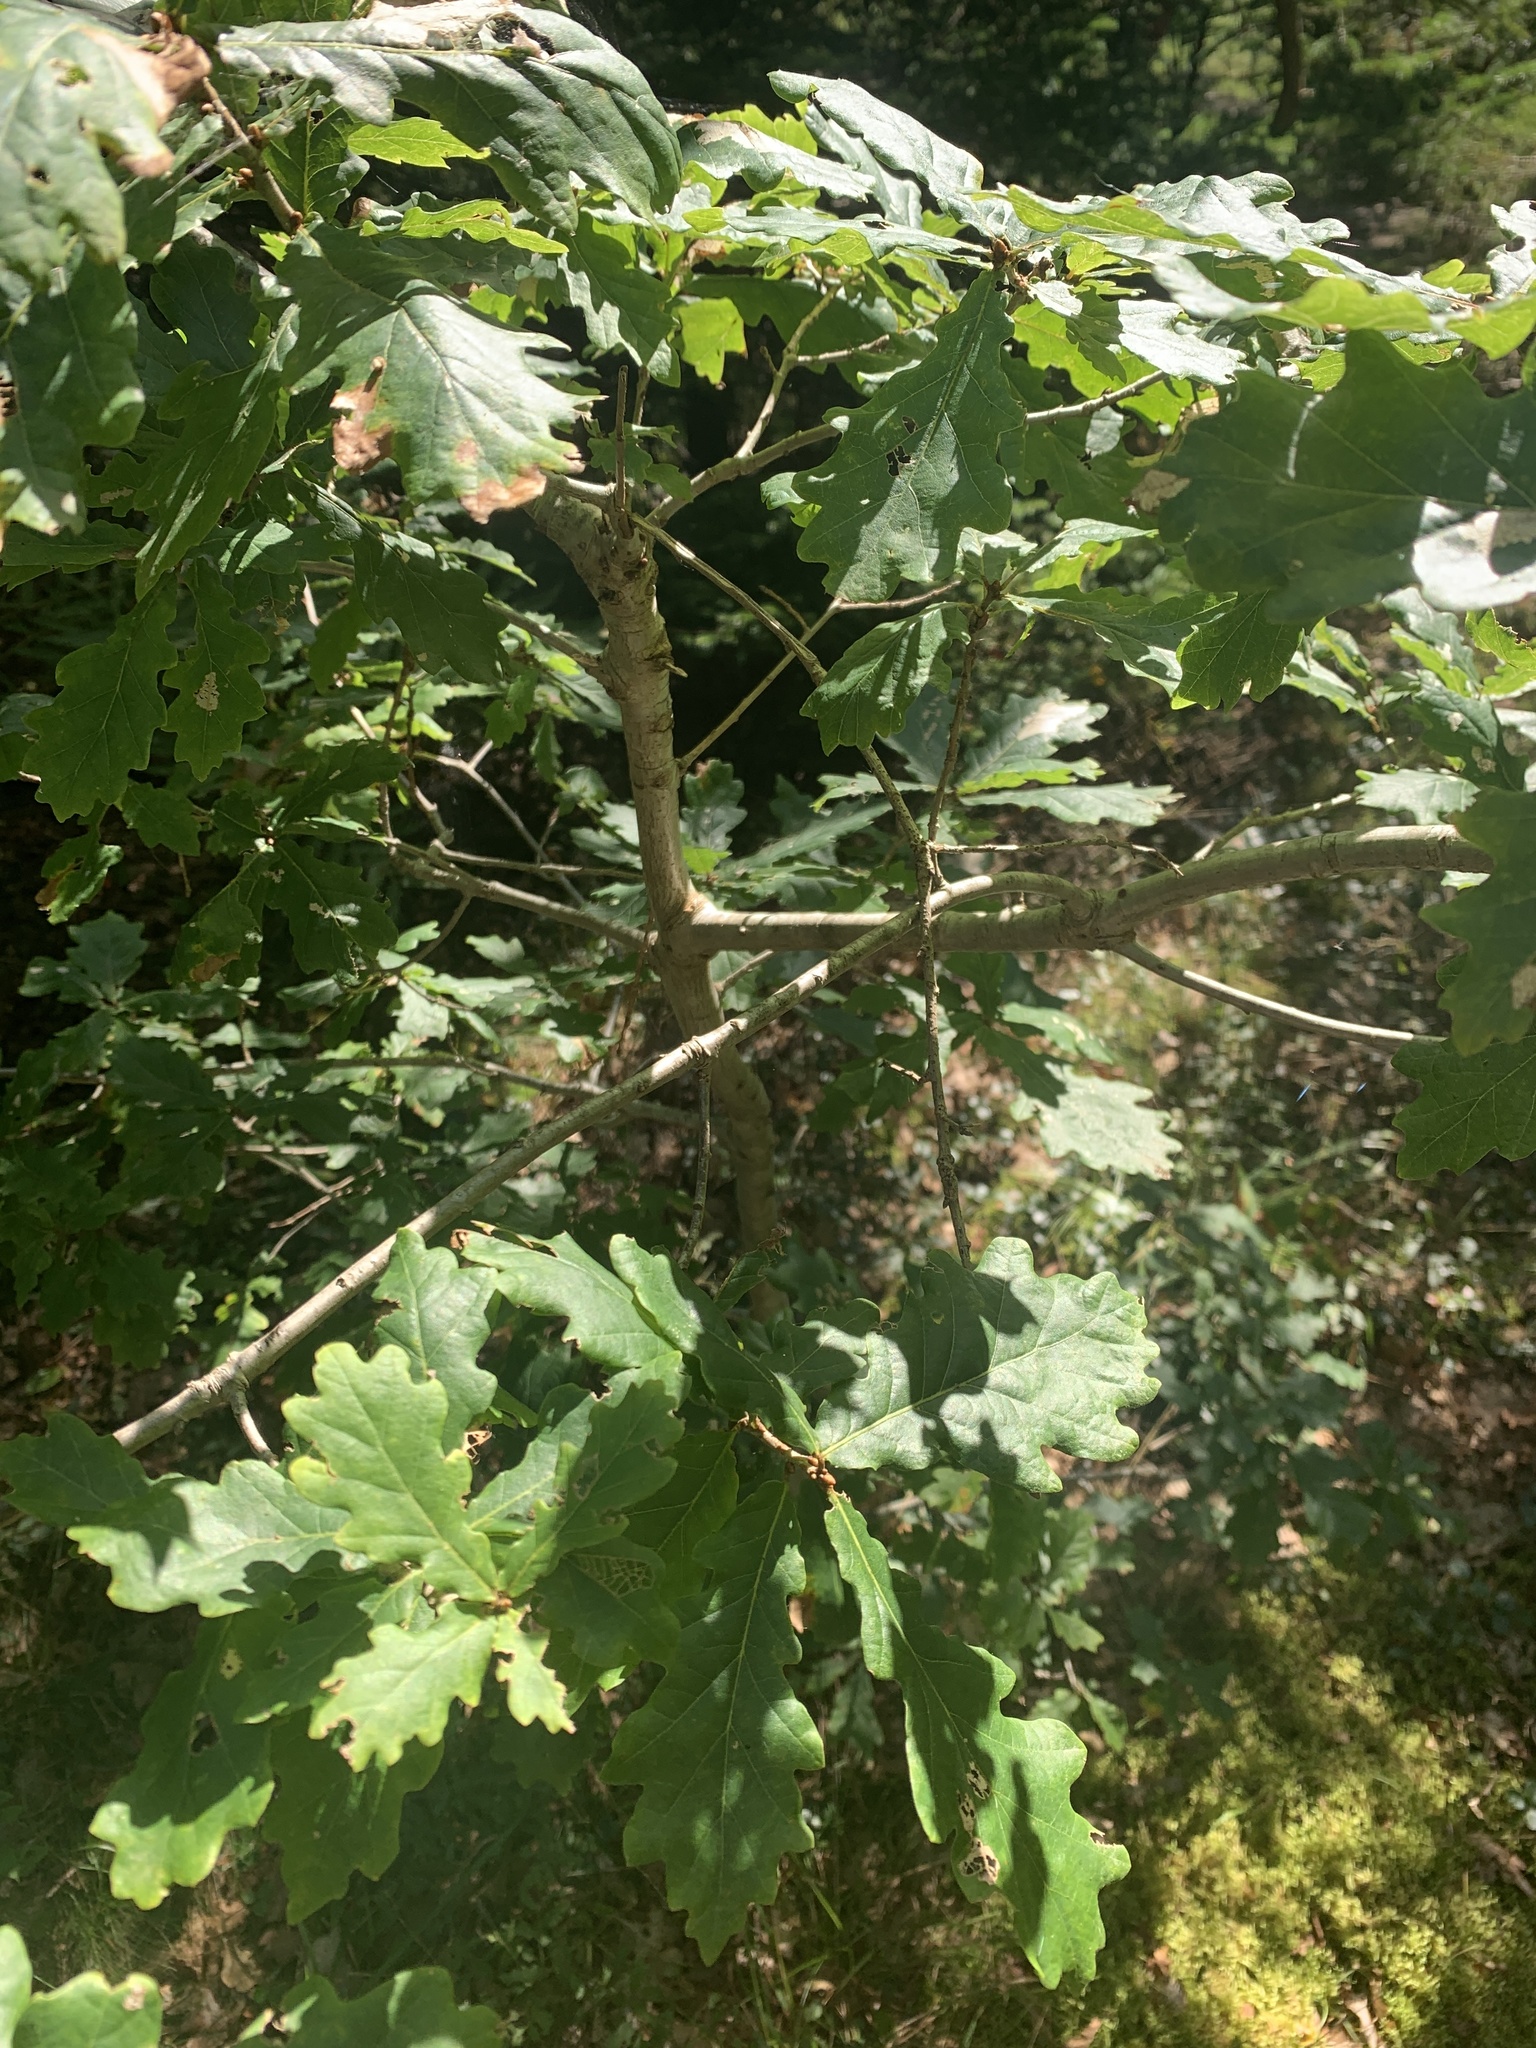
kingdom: Plantae
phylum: Tracheophyta
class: Magnoliopsida
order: Fagales
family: Fagaceae
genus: Quercus
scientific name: Quercus robur
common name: Pedunculate oak
